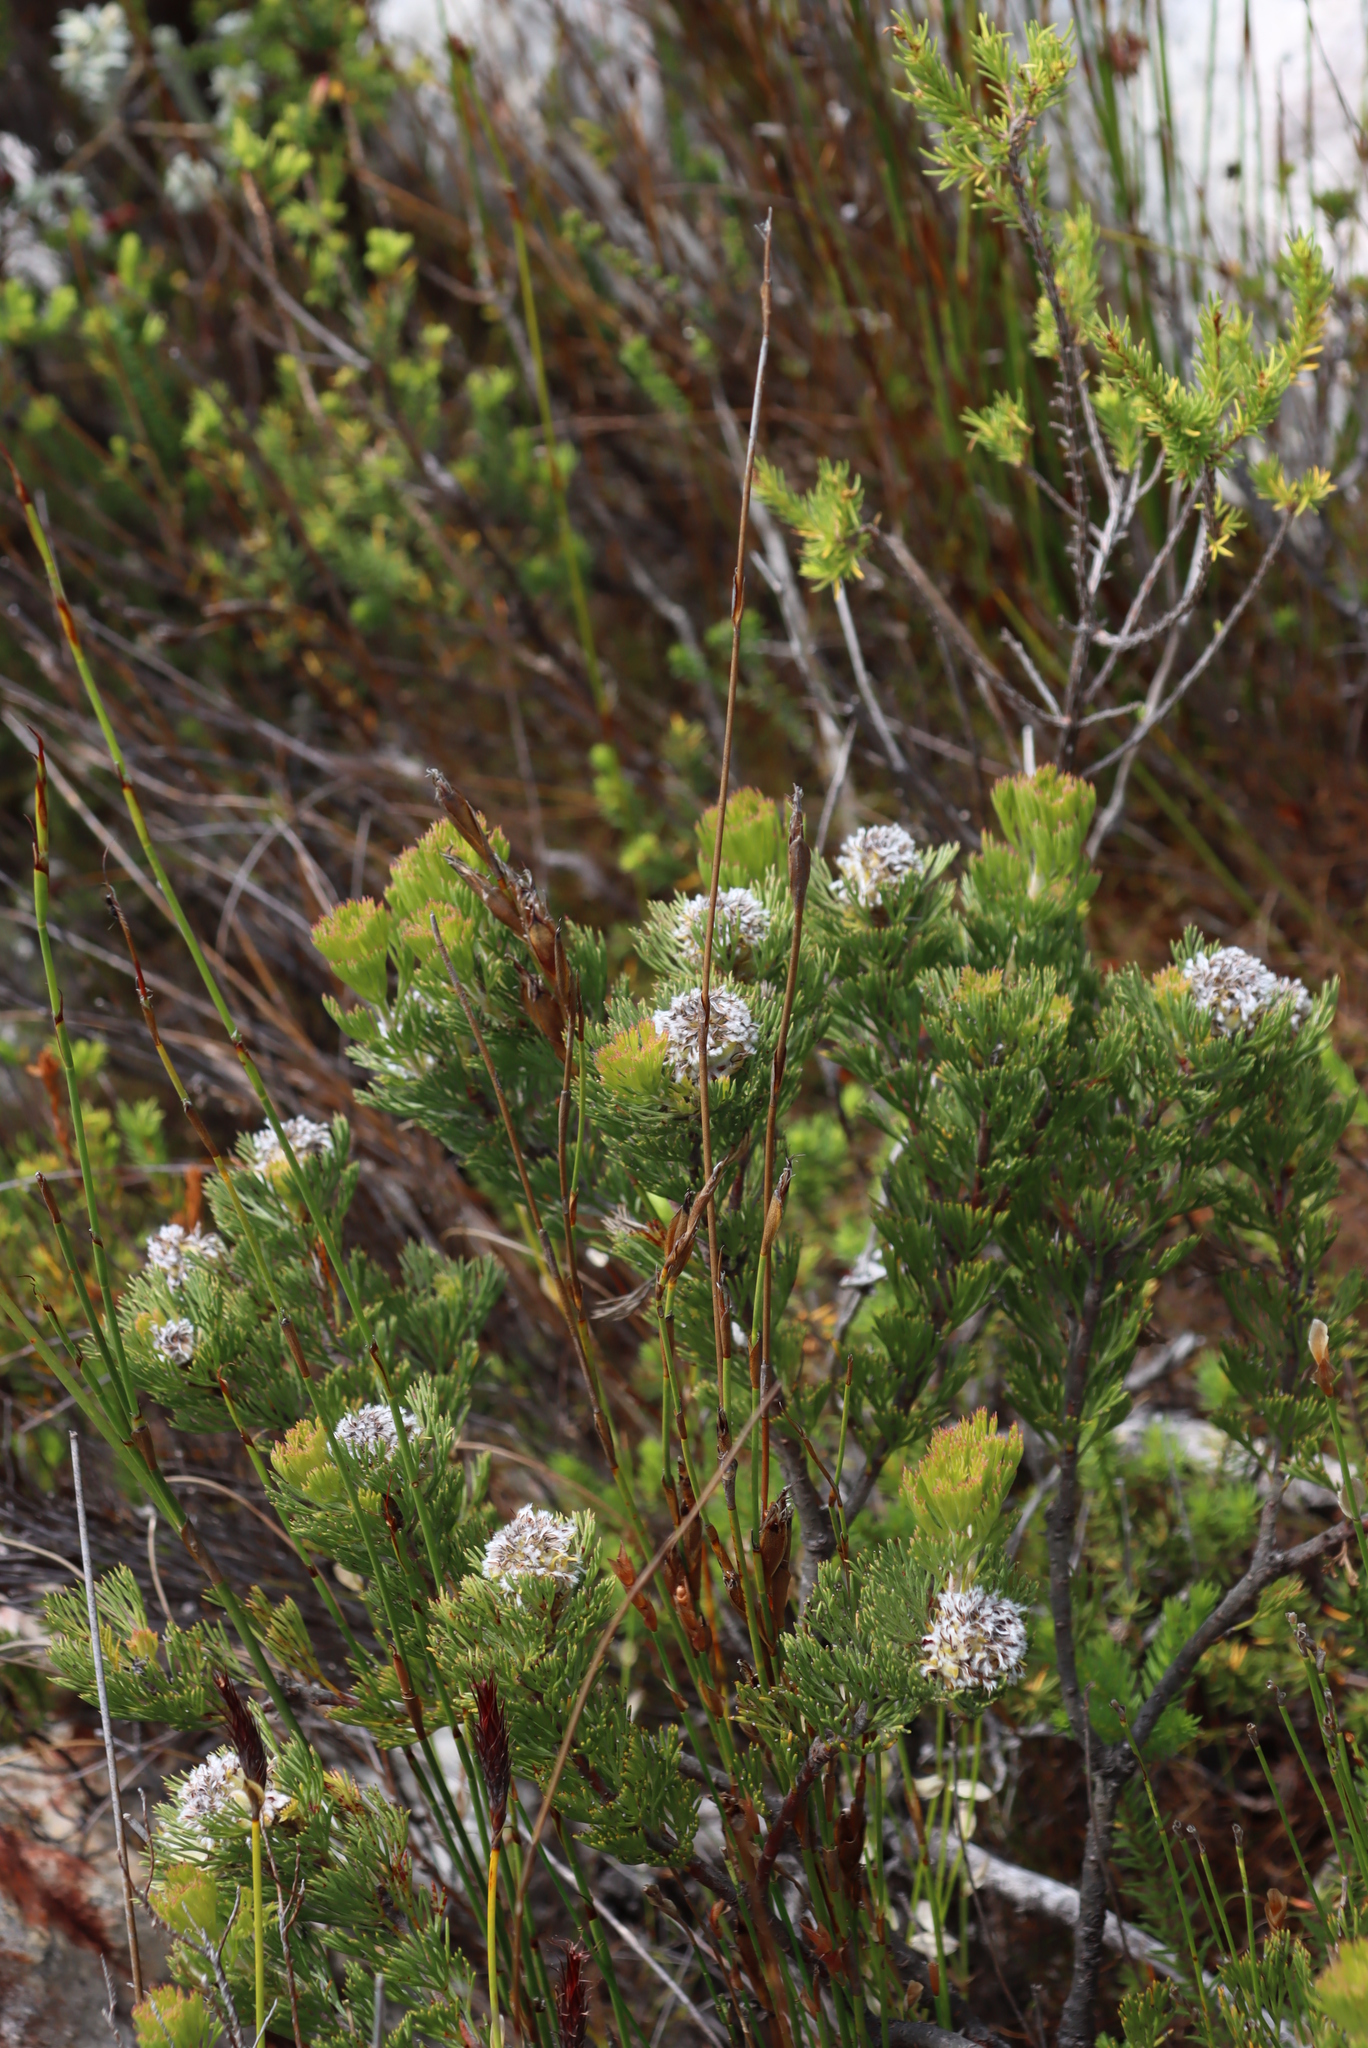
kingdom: Plantae
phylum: Tracheophyta
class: Magnoliopsida
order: Proteales
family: Proteaceae
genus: Serruria
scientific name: Serruria villosa
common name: Golden spiderhead
